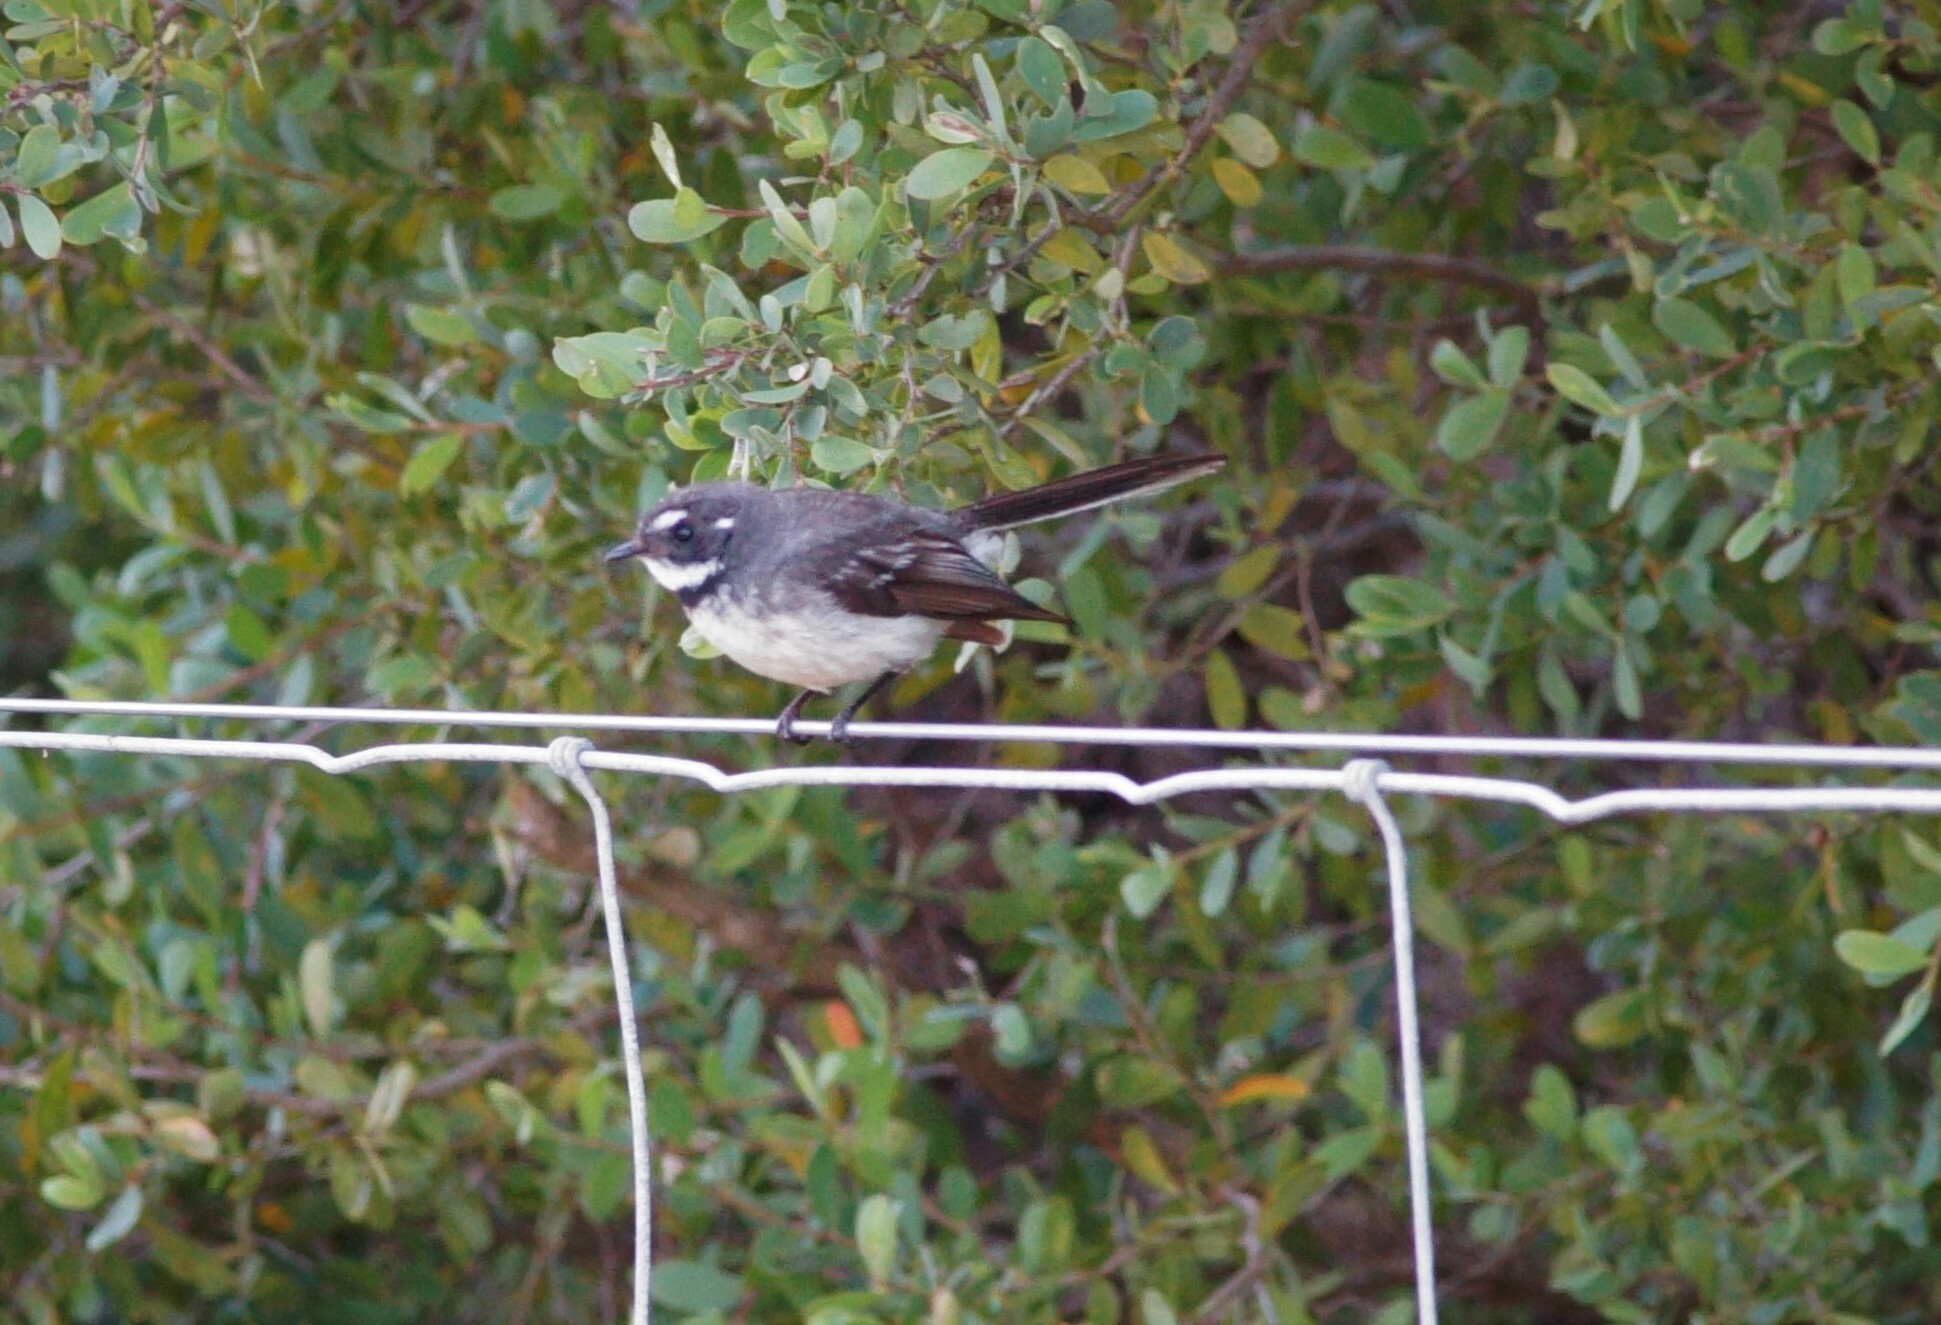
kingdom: Animalia
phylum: Chordata
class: Aves
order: Passeriformes
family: Rhipiduridae
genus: Rhipidura
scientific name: Rhipidura albiscapa
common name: Grey fantail
